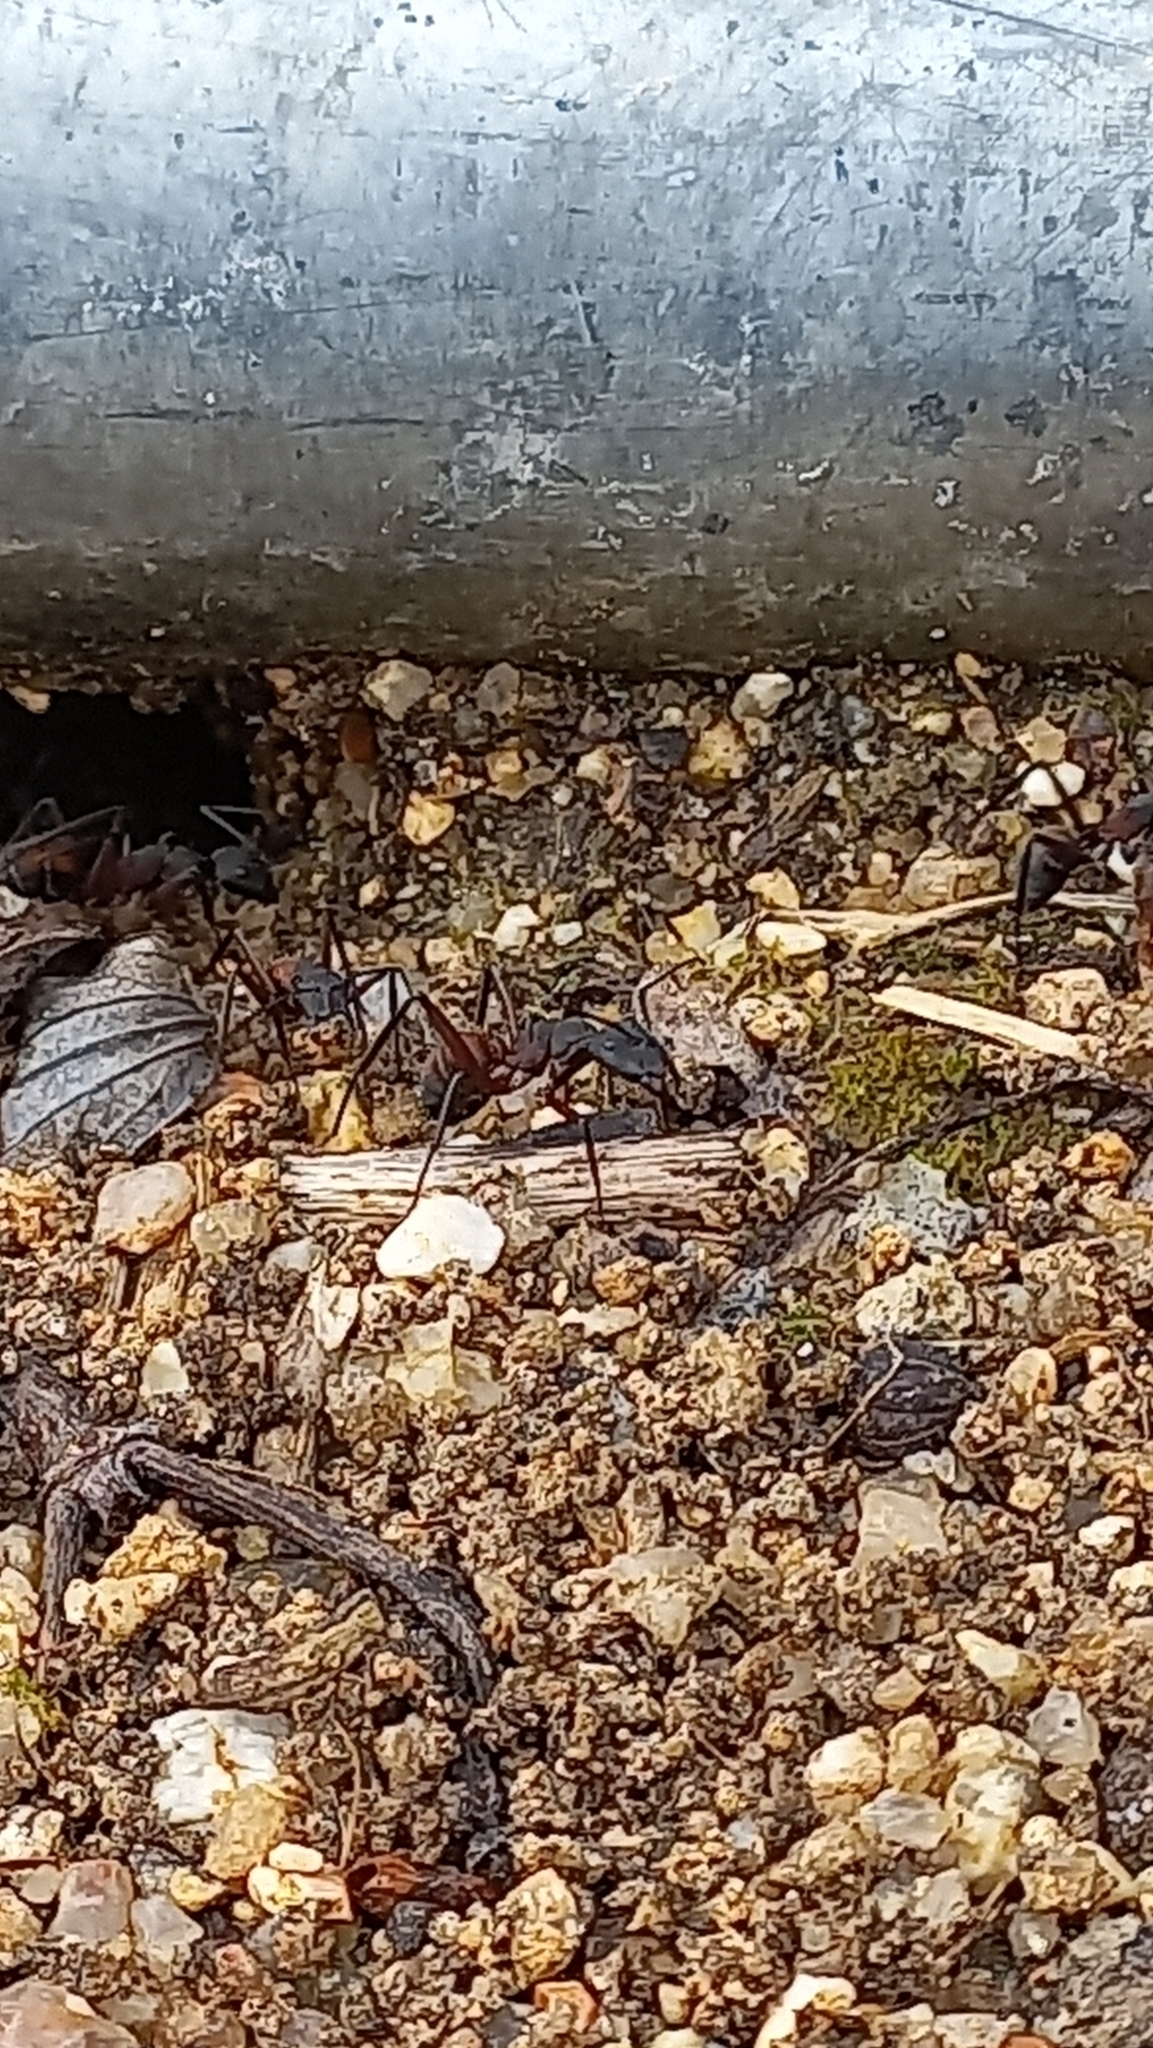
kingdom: Animalia
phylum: Arthropoda
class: Insecta
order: Hymenoptera
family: Formicidae
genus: Camponotus
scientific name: Camponotus cruentatus
